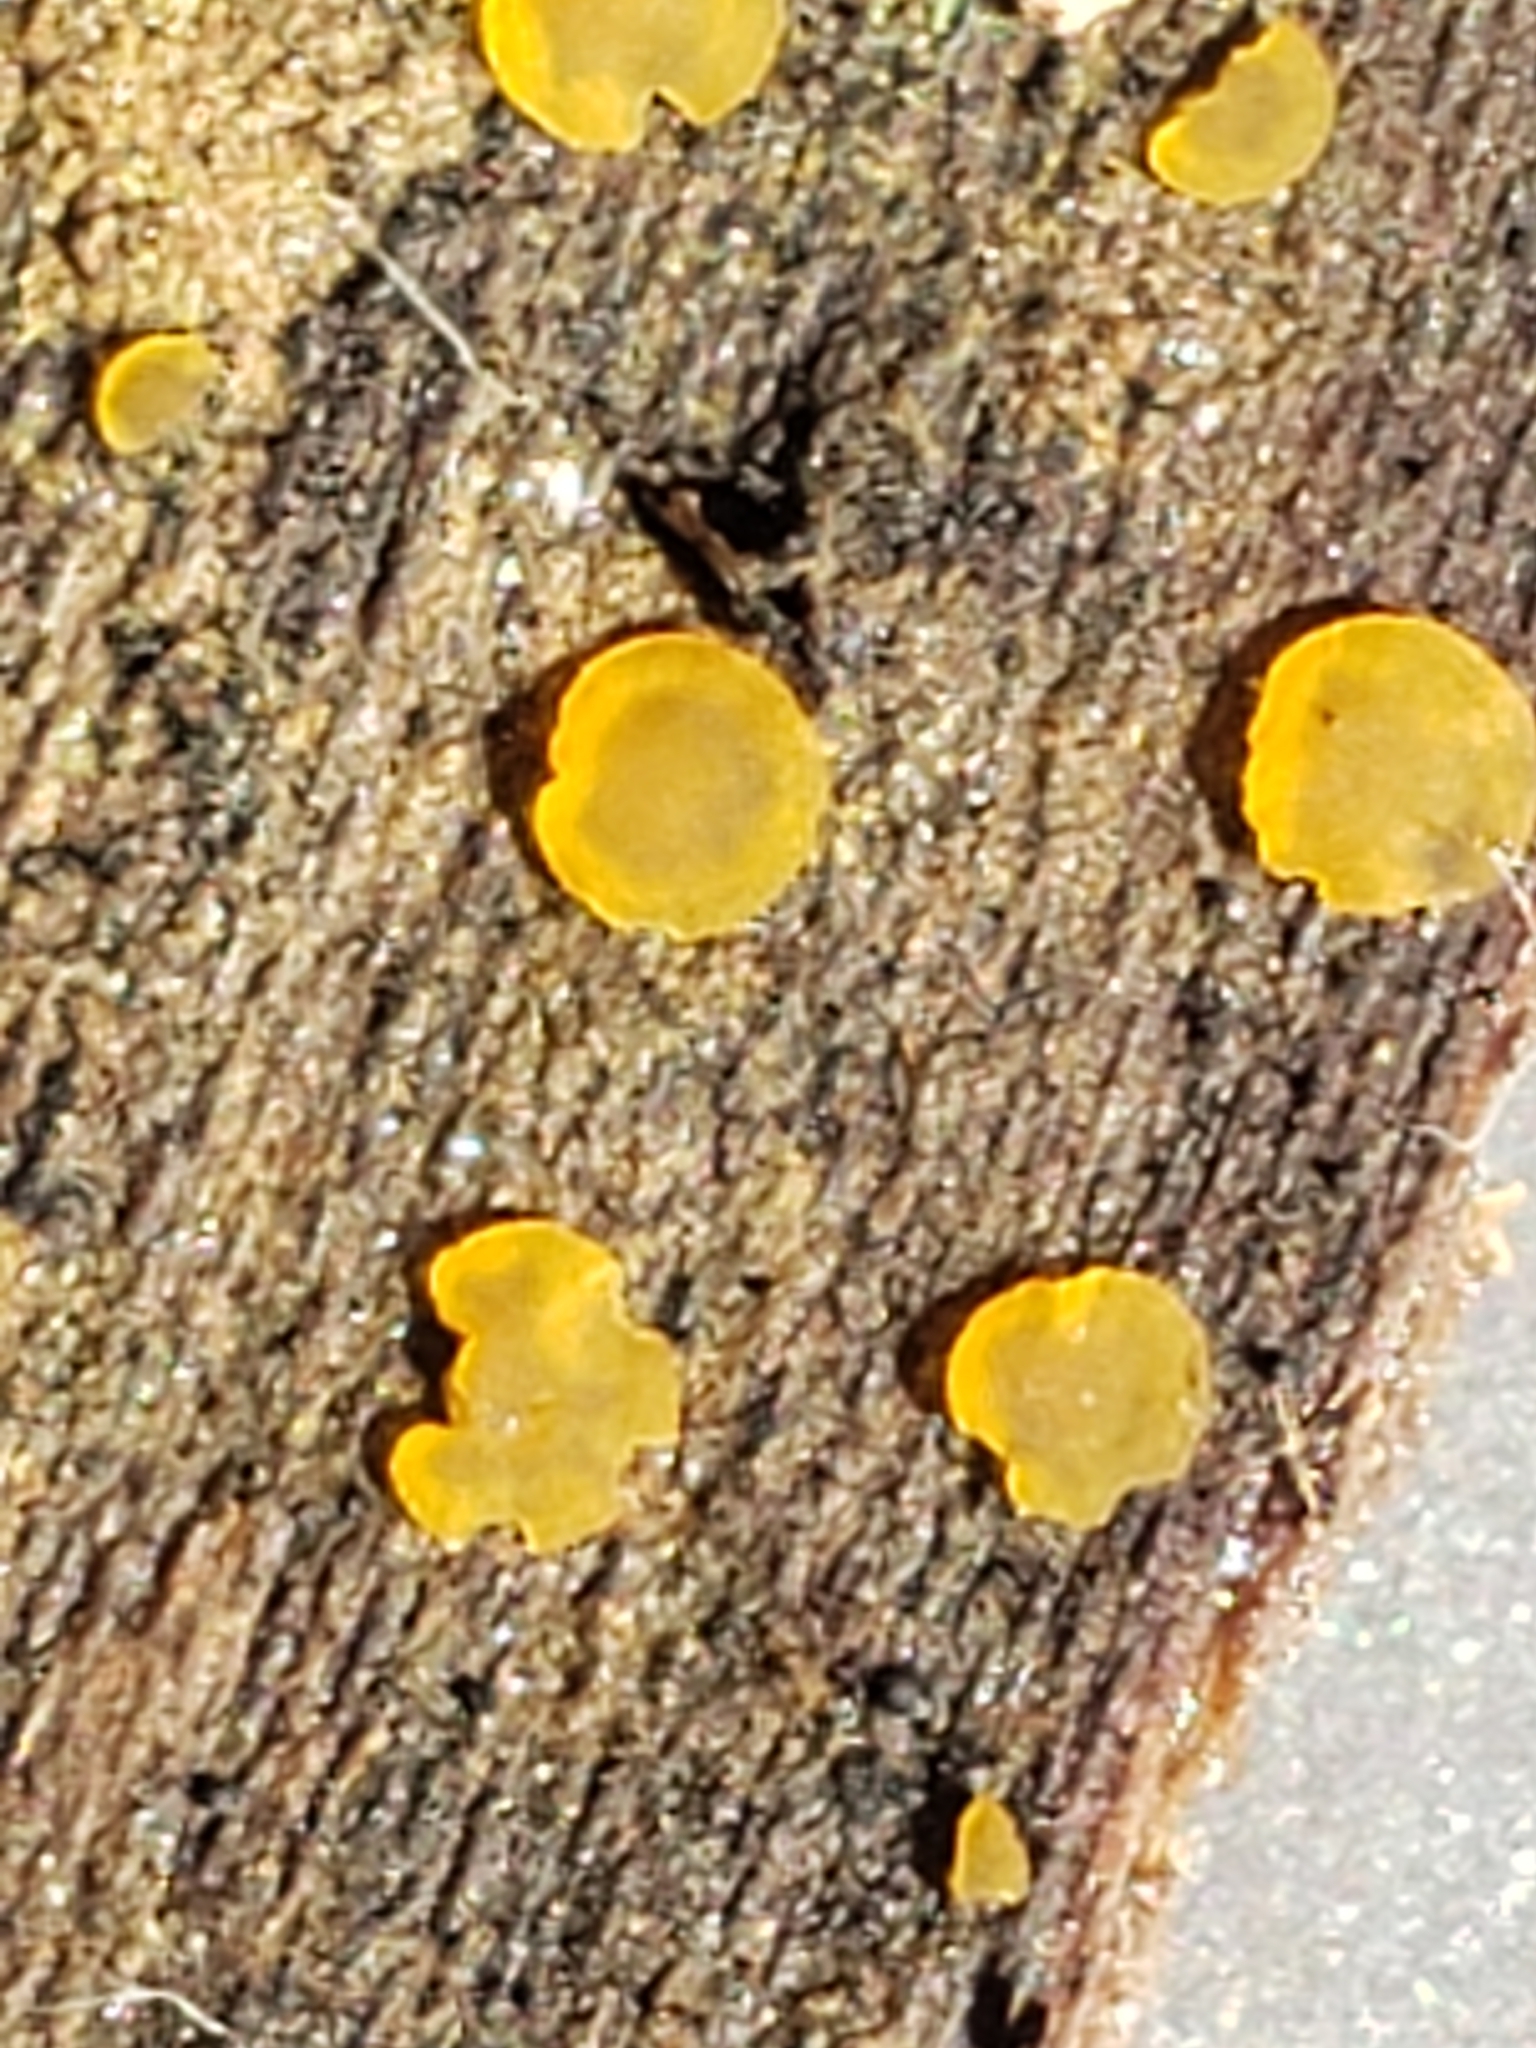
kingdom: Fungi
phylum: Ascomycota
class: Orbiliomycetes
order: Orbiliales
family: Orbiliaceae
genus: Orbilia
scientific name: Orbilia
